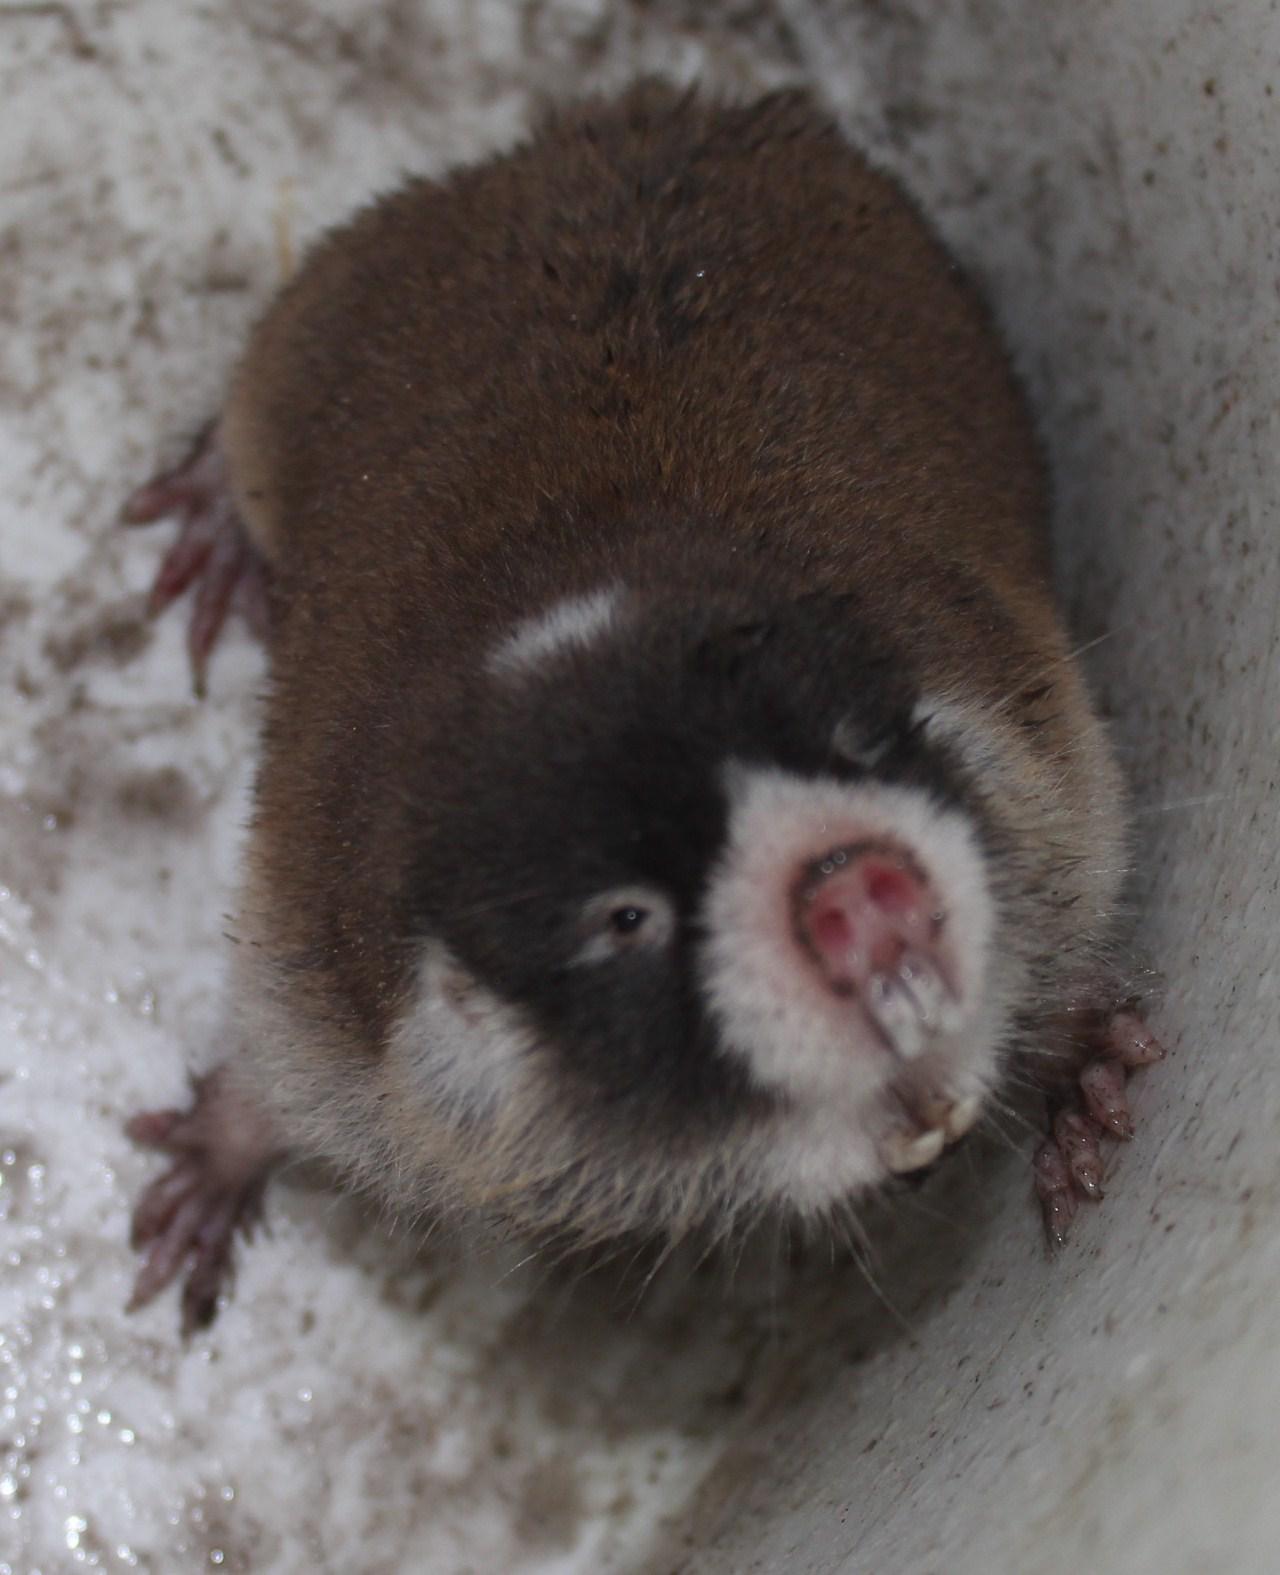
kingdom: Animalia
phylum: Chordata
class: Mammalia
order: Rodentia
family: Bathyergidae
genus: Georychus
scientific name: Georychus capensis
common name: Cape mole-rat
